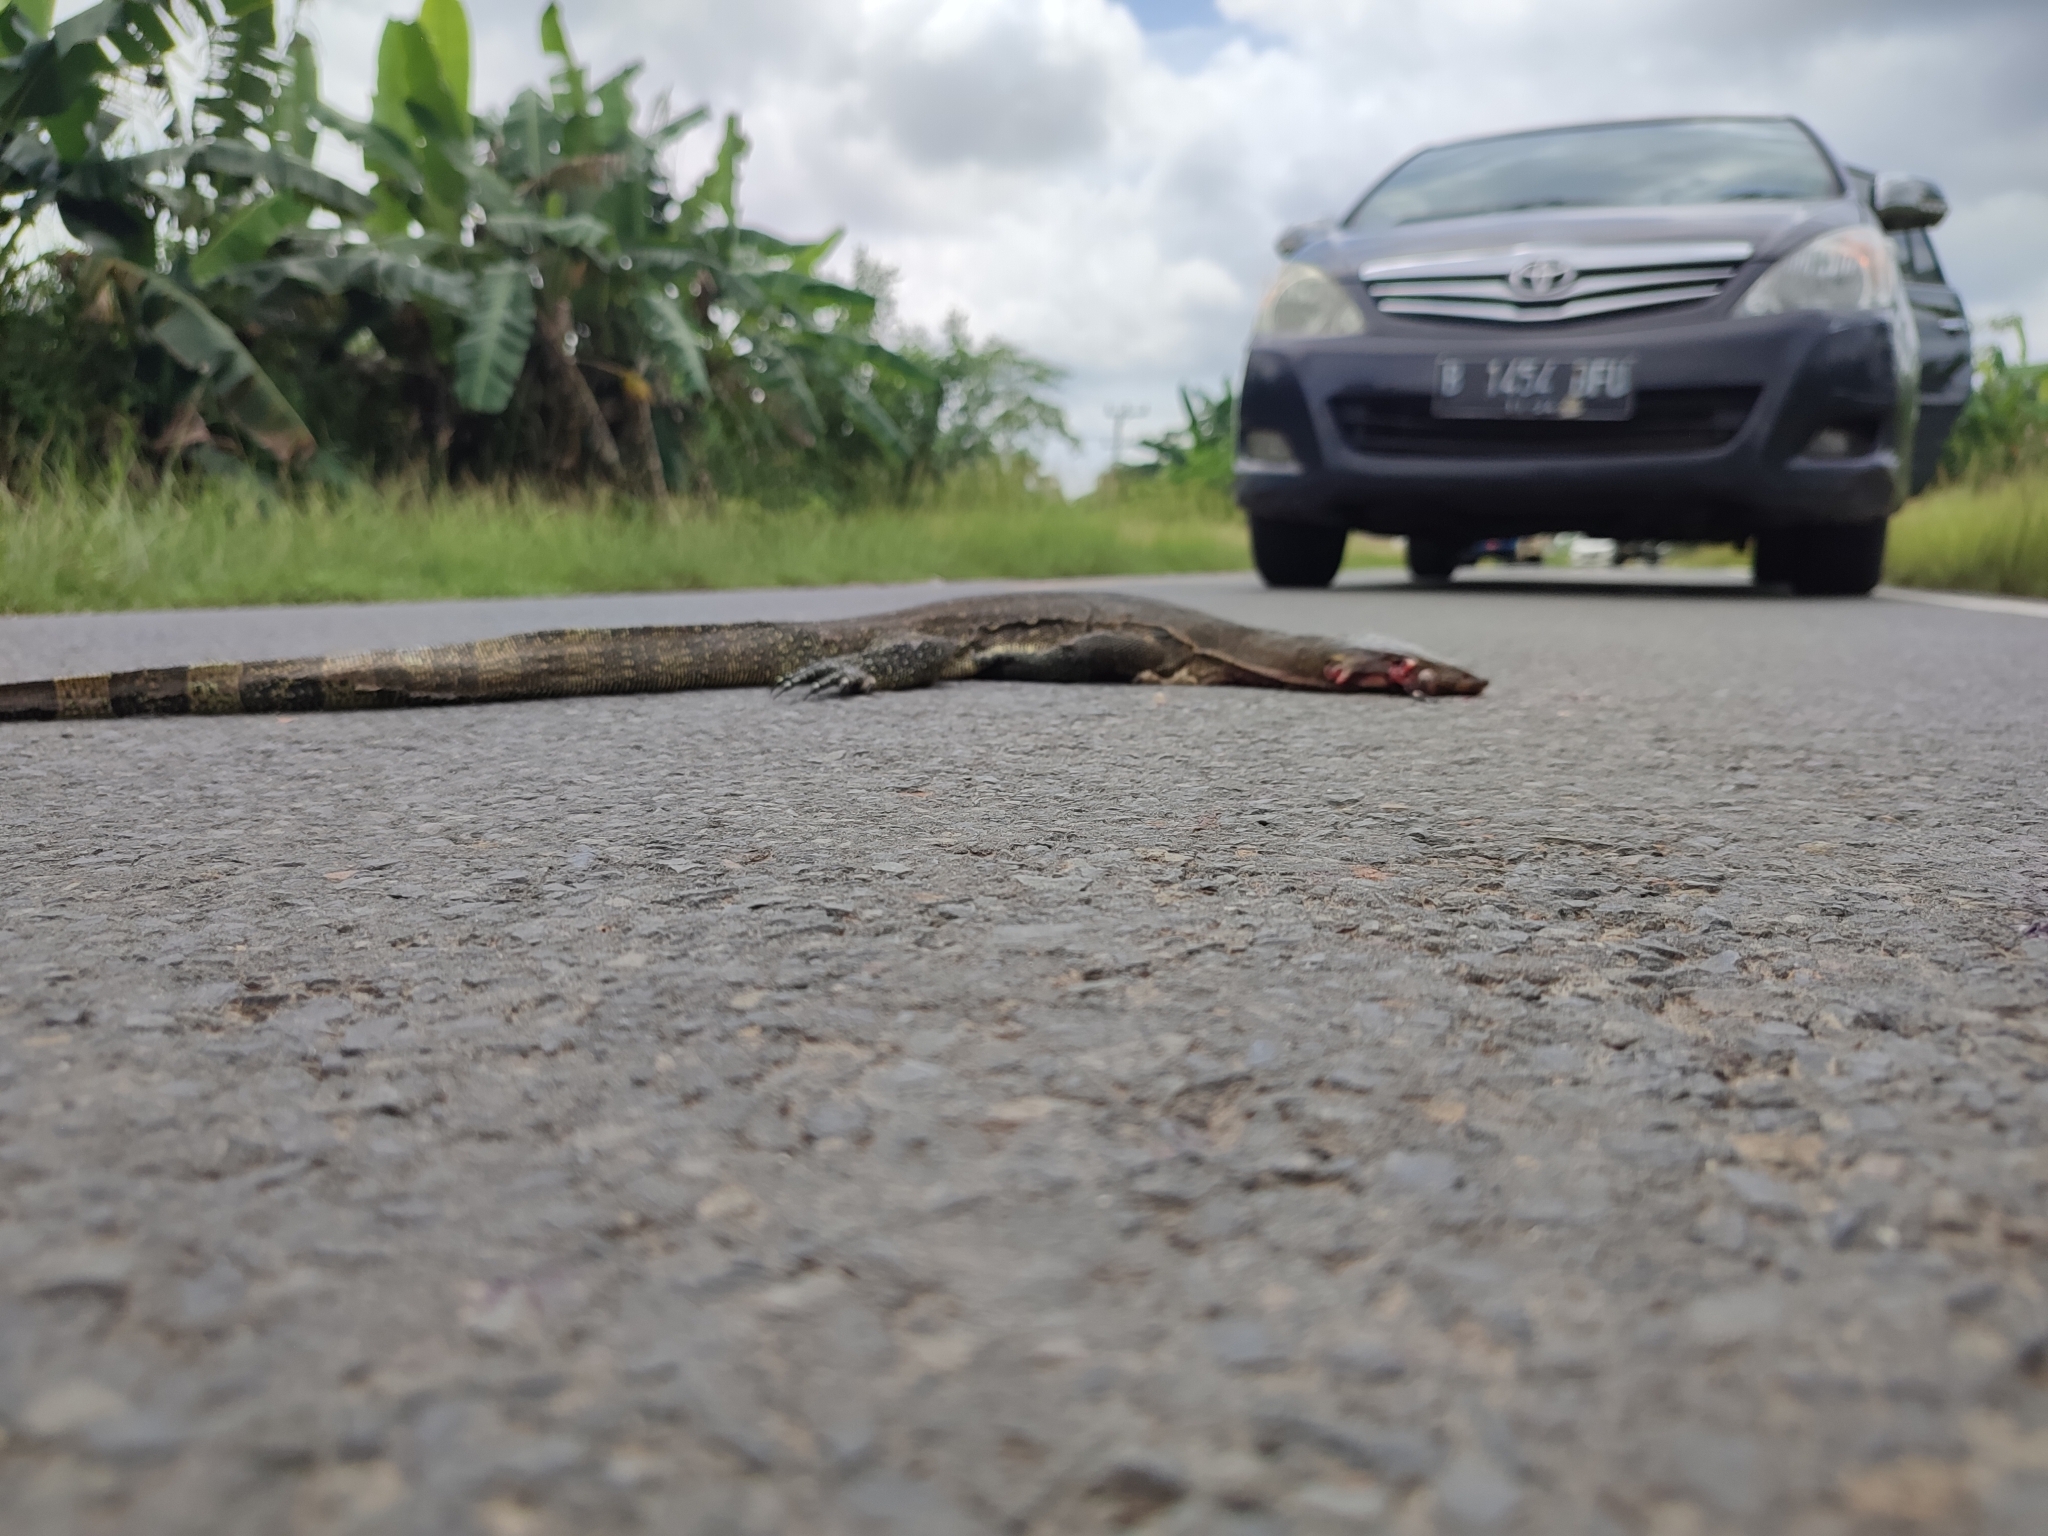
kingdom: Animalia
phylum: Chordata
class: Squamata
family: Varanidae
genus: Varanus
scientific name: Varanus salvator
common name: Common water monitor
